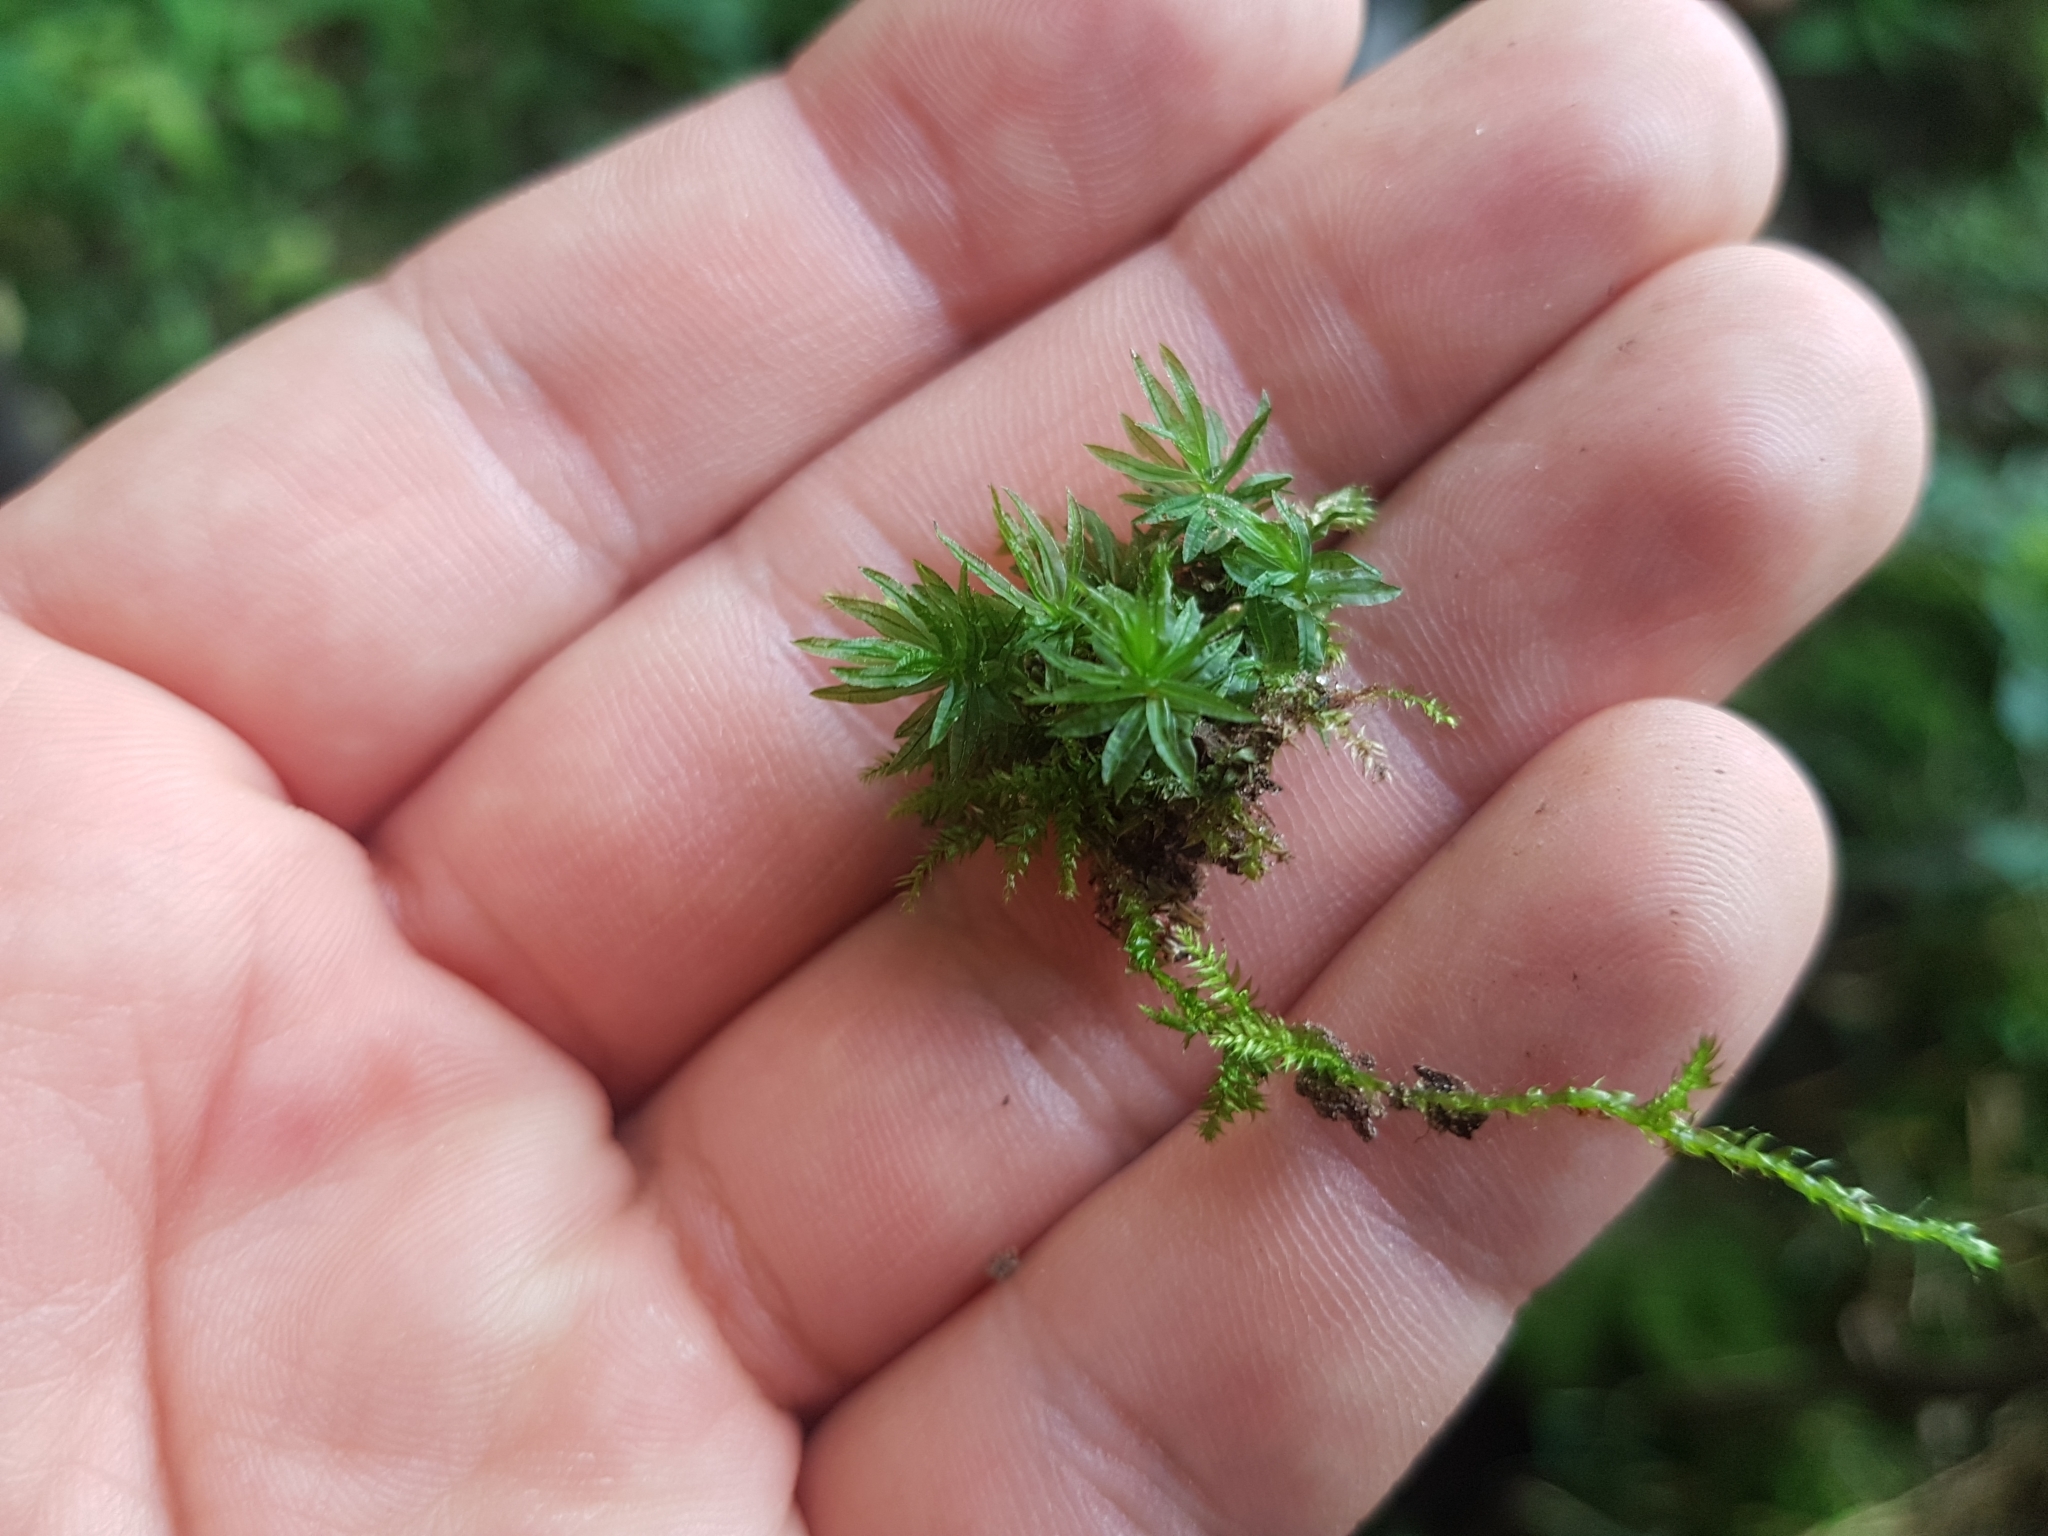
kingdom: Plantae
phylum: Bryophyta
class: Polytrichopsida
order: Polytrichales
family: Polytrichaceae
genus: Atrichum
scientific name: Atrichum undulatum
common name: Common smoothcap
